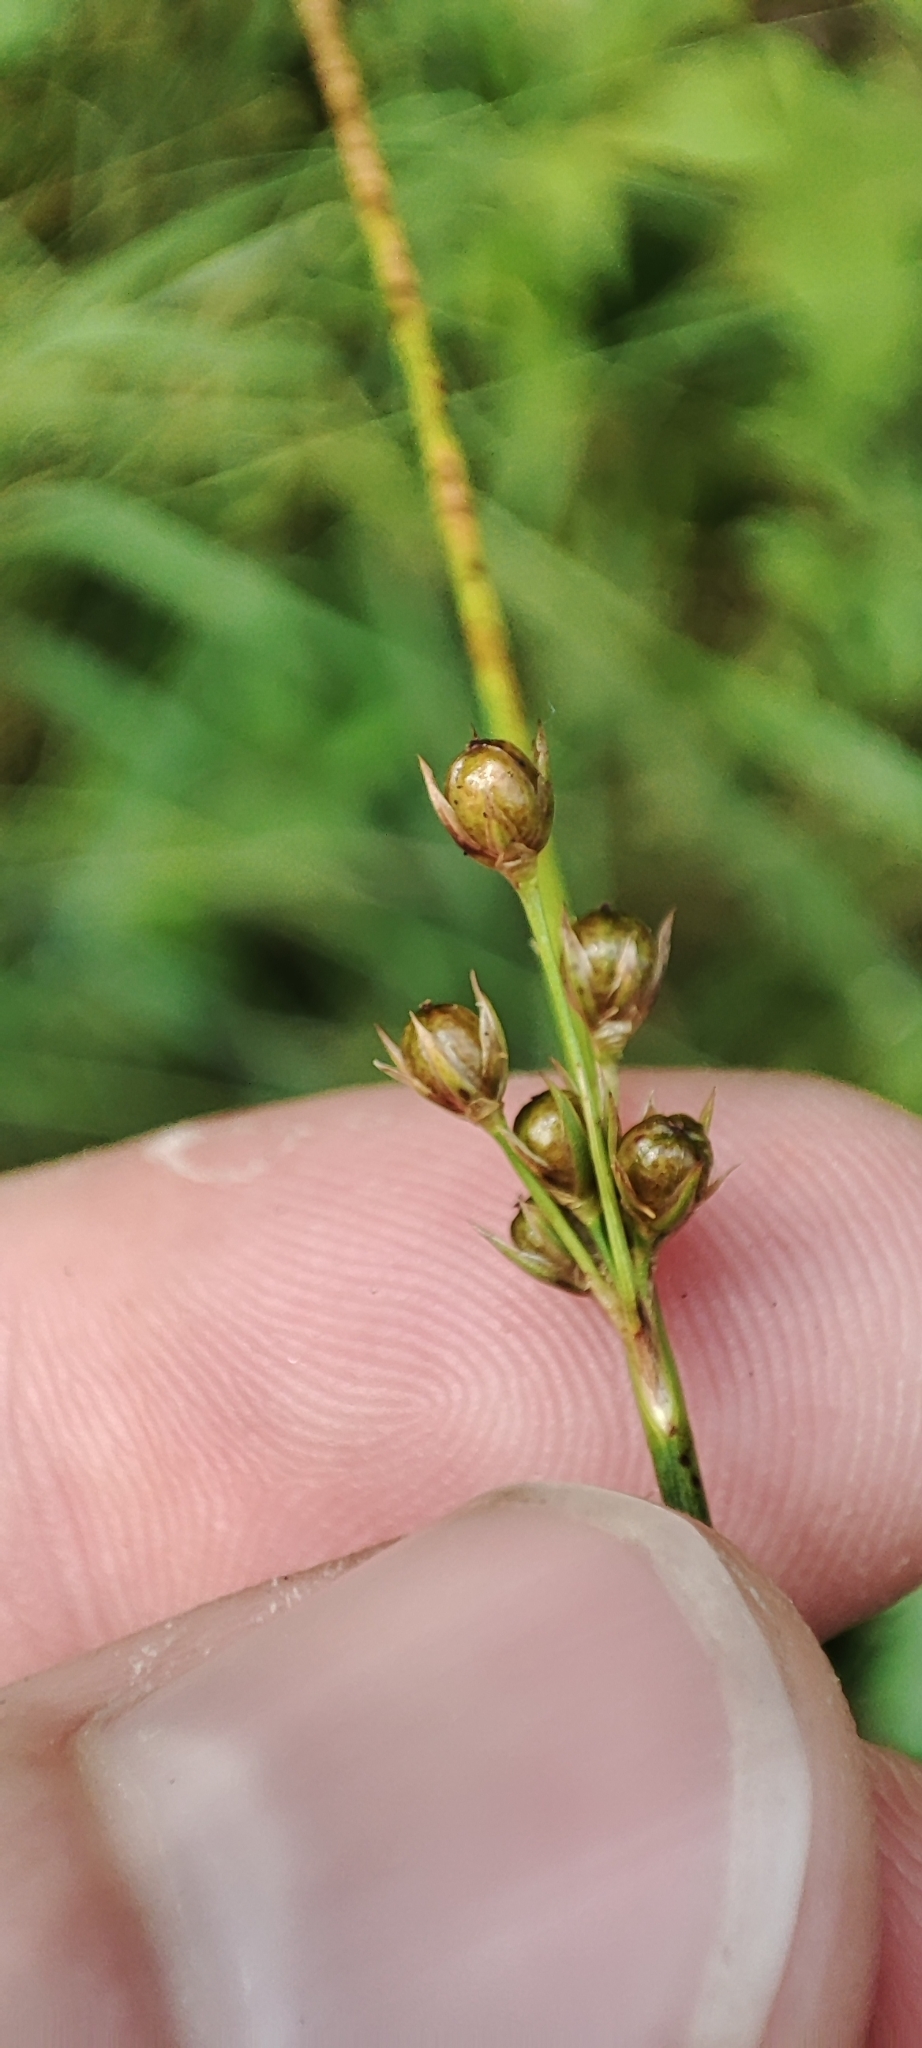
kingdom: Plantae
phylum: Tracheophyta
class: Liliopsida
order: Poales
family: Juncaceae
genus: Juncus
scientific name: Juncus filiformis
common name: Thread rush
